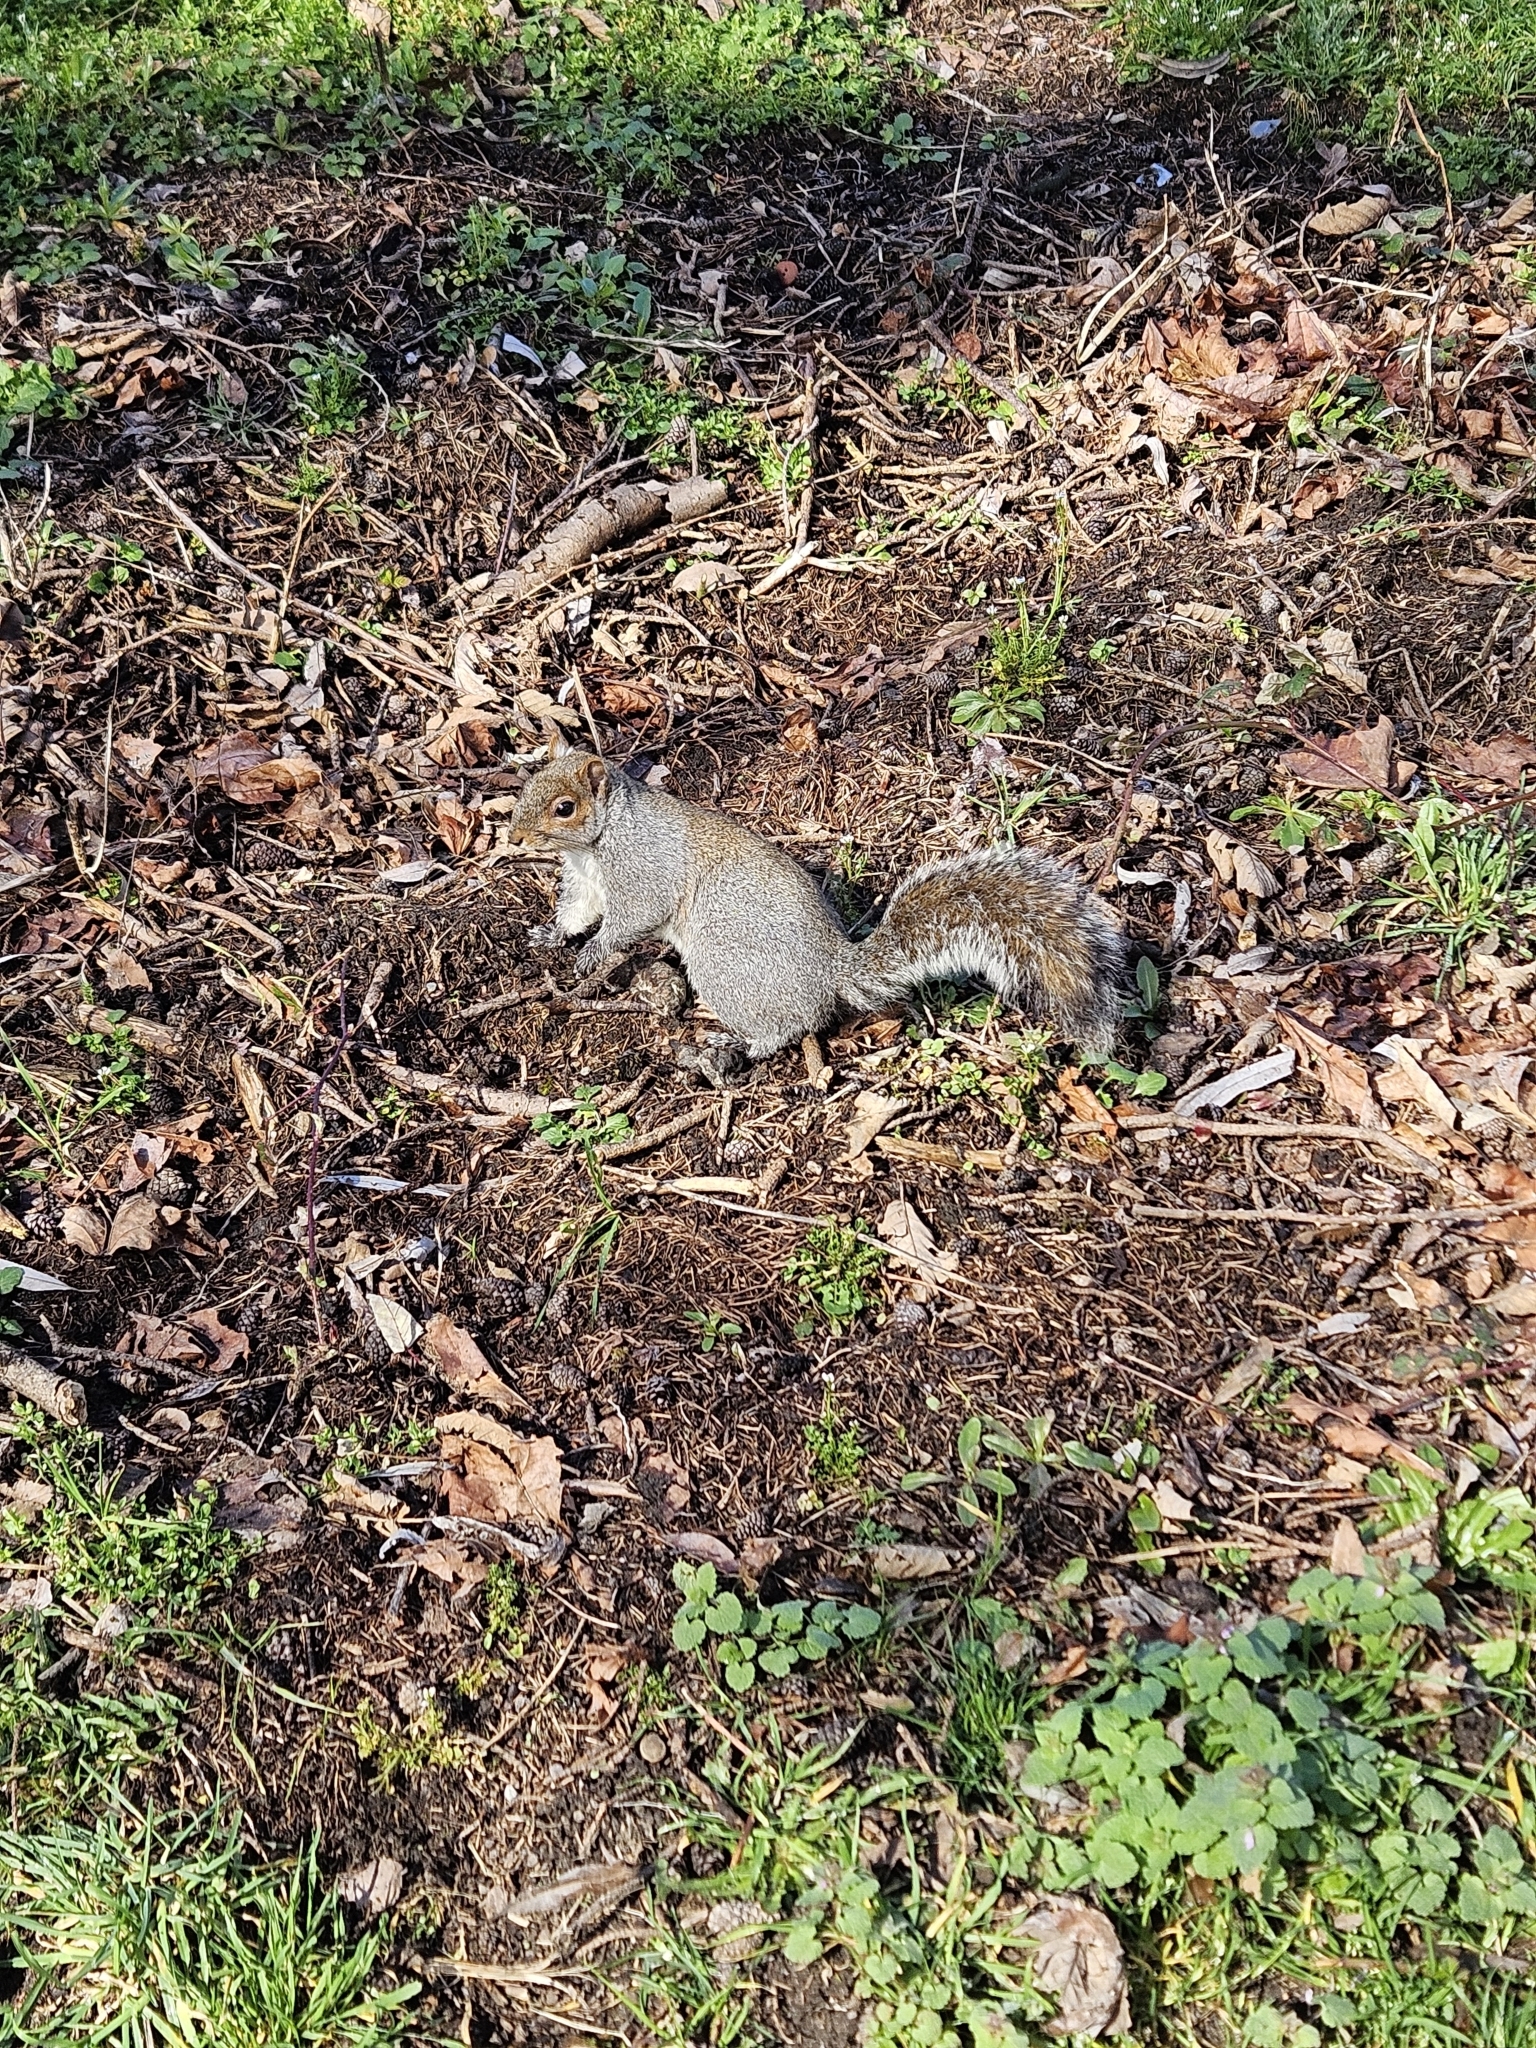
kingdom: Animalia
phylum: Chordata
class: Mammalia
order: Rodentia
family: Sciuridae
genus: Sciurus
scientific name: Sciurus carolinensis
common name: Eastern gray squirrel
